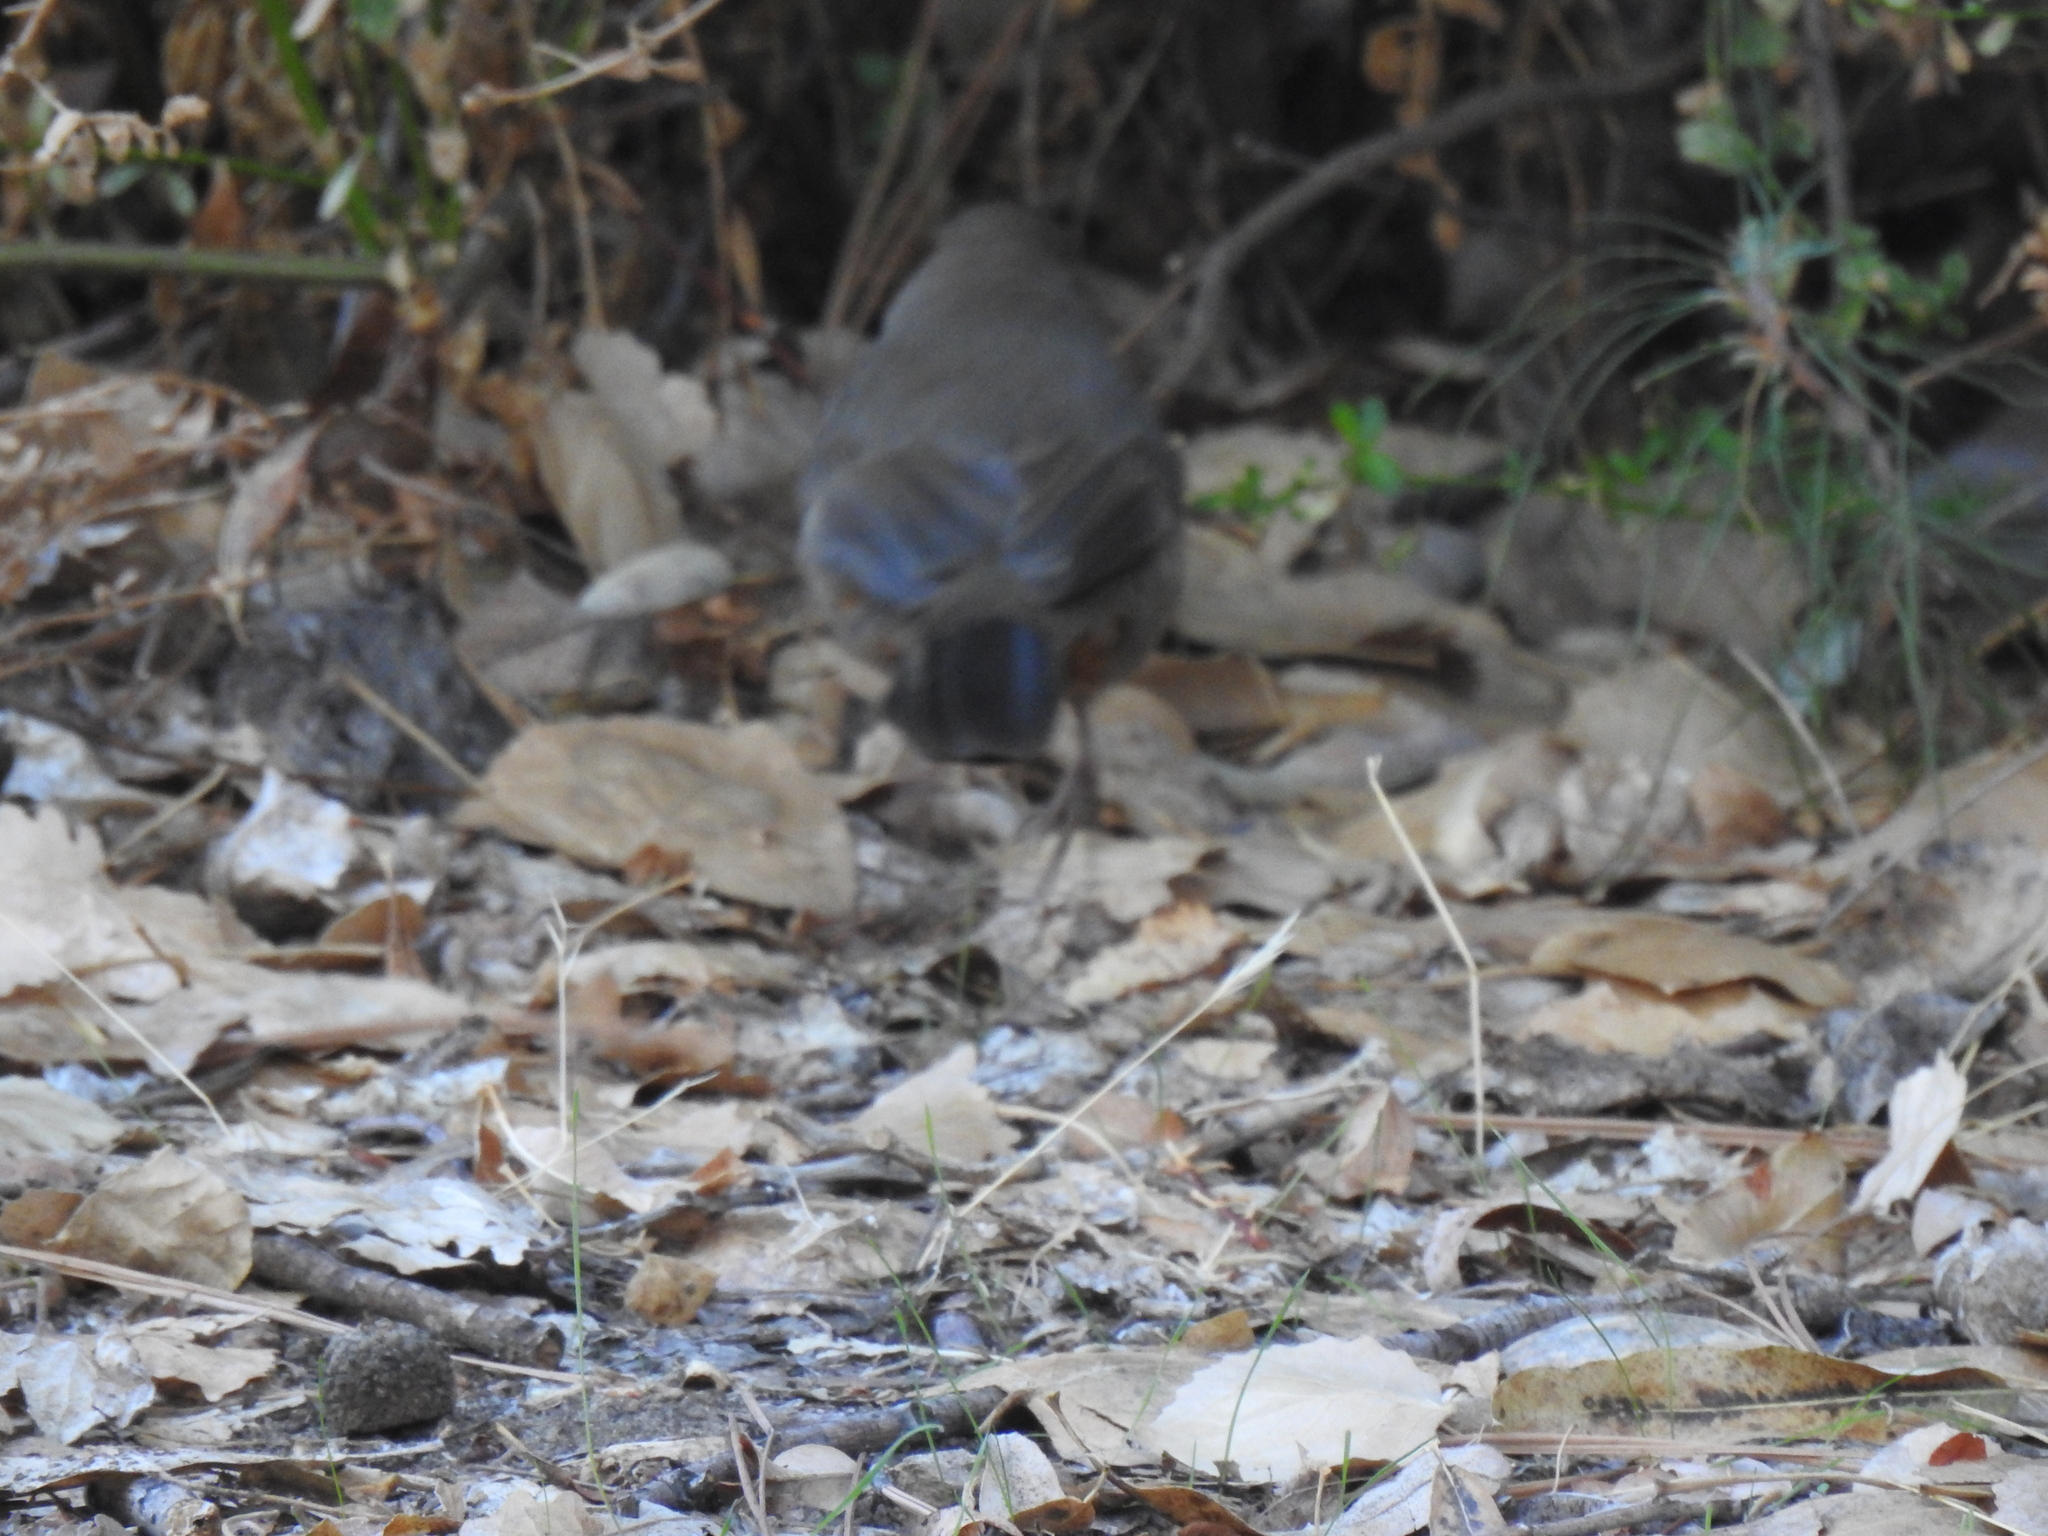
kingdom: Animalia
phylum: Chordata
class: Aves
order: Passeriformes
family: Passerellidae
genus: Melozone
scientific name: Melozone crissalis
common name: California towhee
